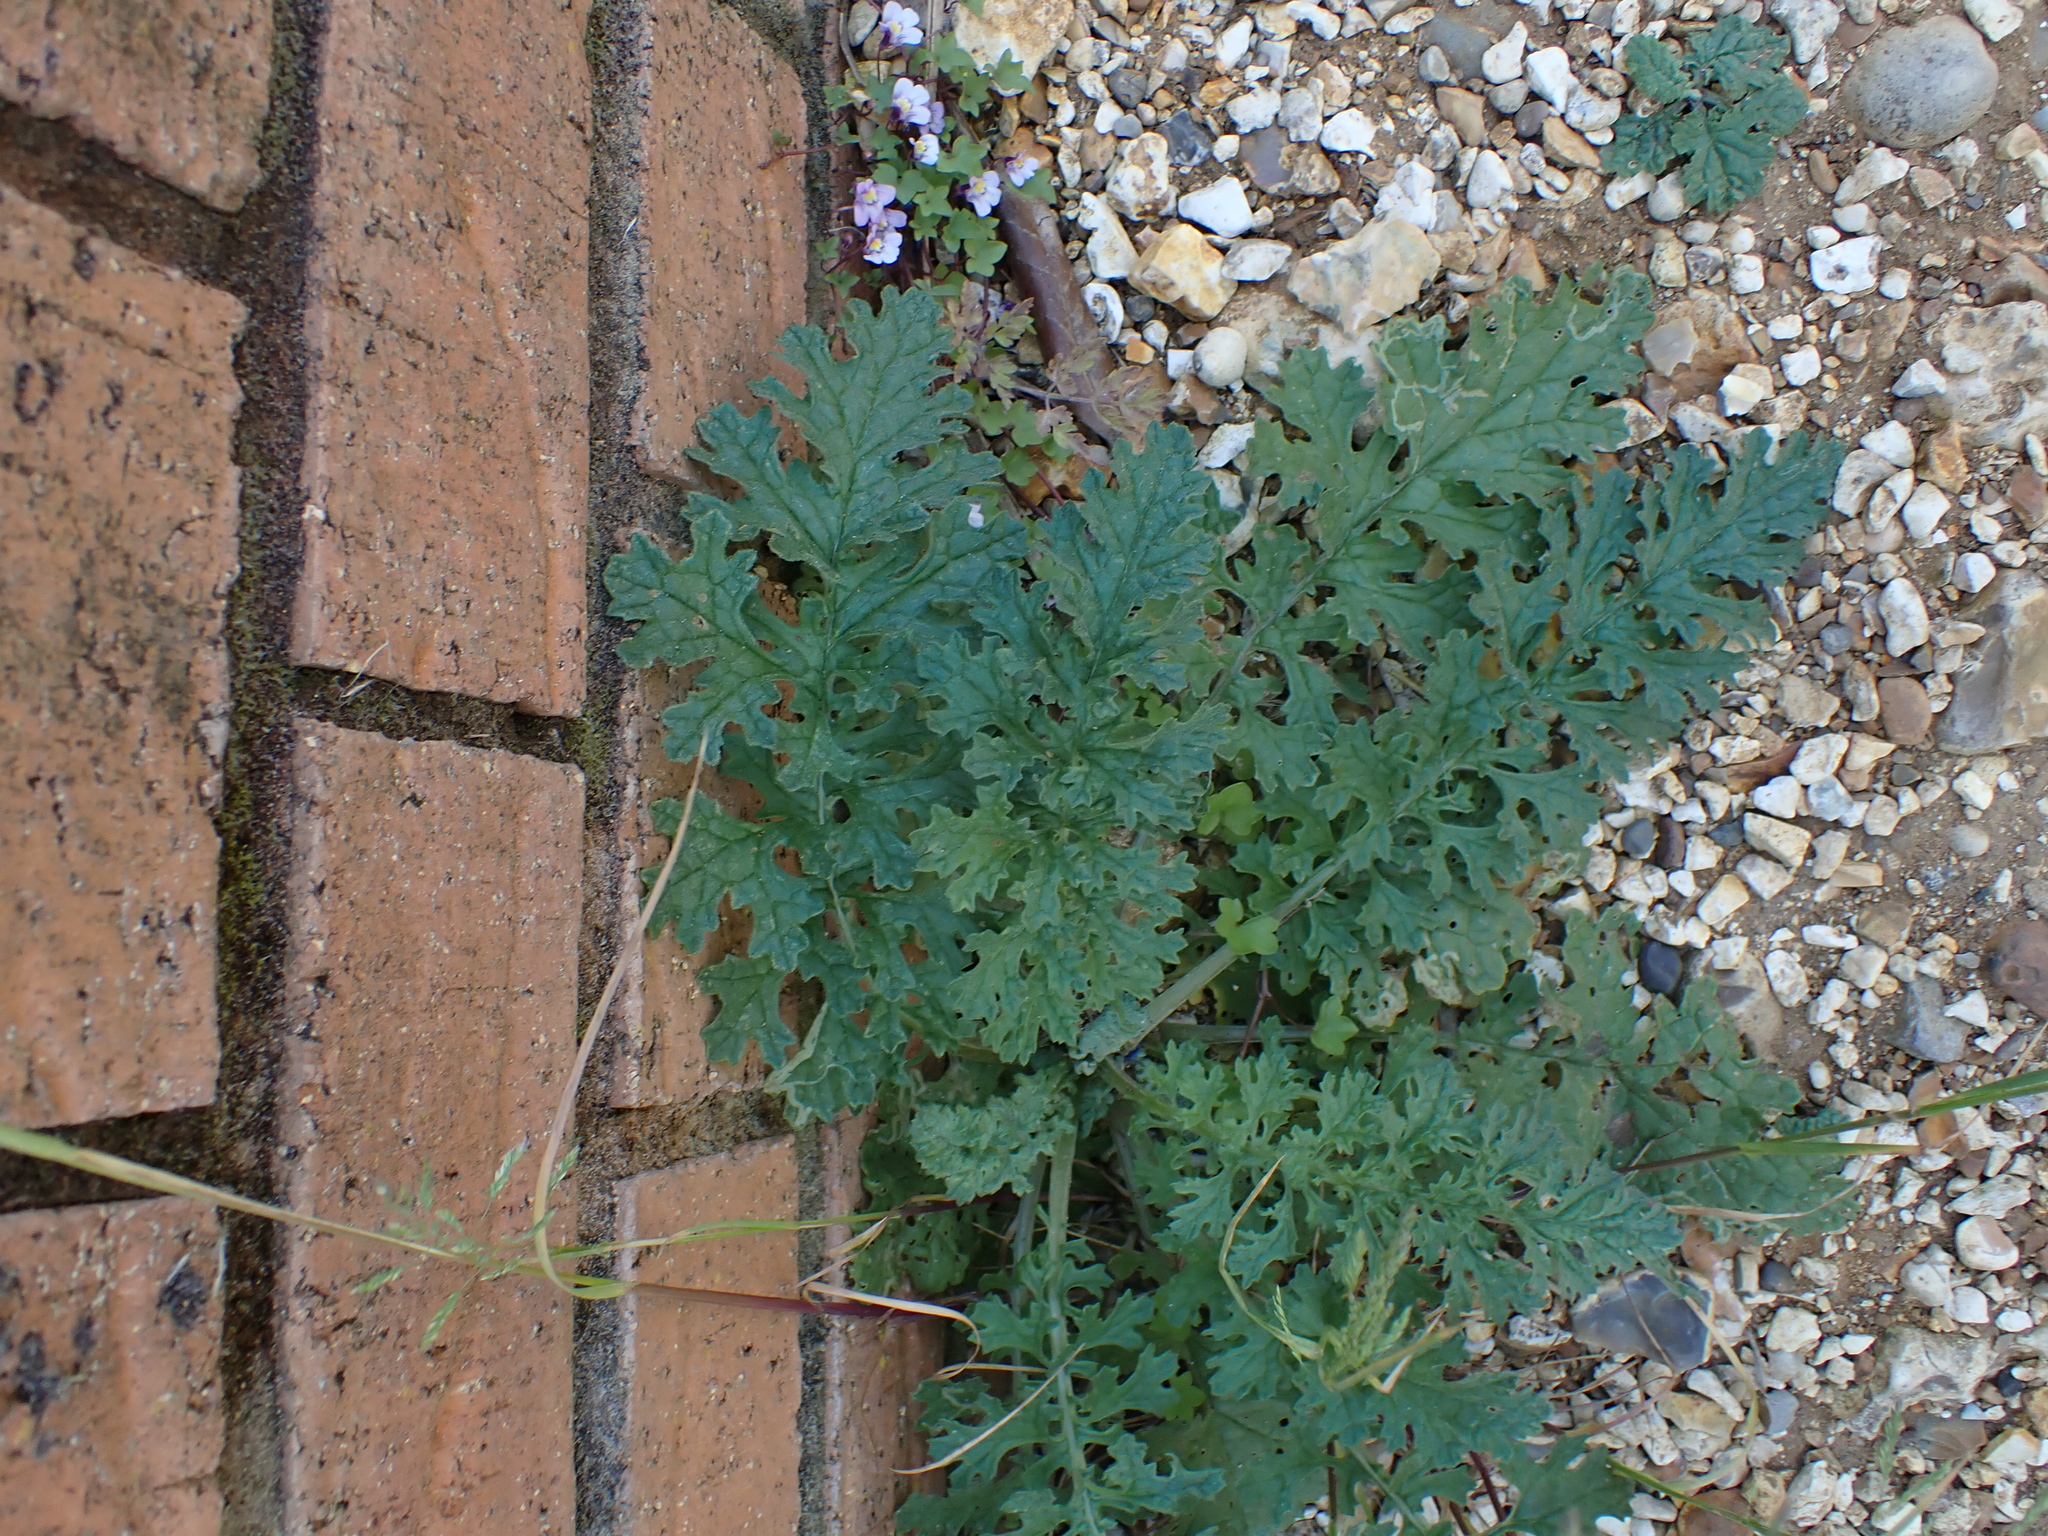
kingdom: Plantae
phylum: Tracheophyta
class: Magnoliopsida
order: Asterales
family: Asteraceae
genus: Jacobaea
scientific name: Jacobaea vulgaris
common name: Stinking willie
